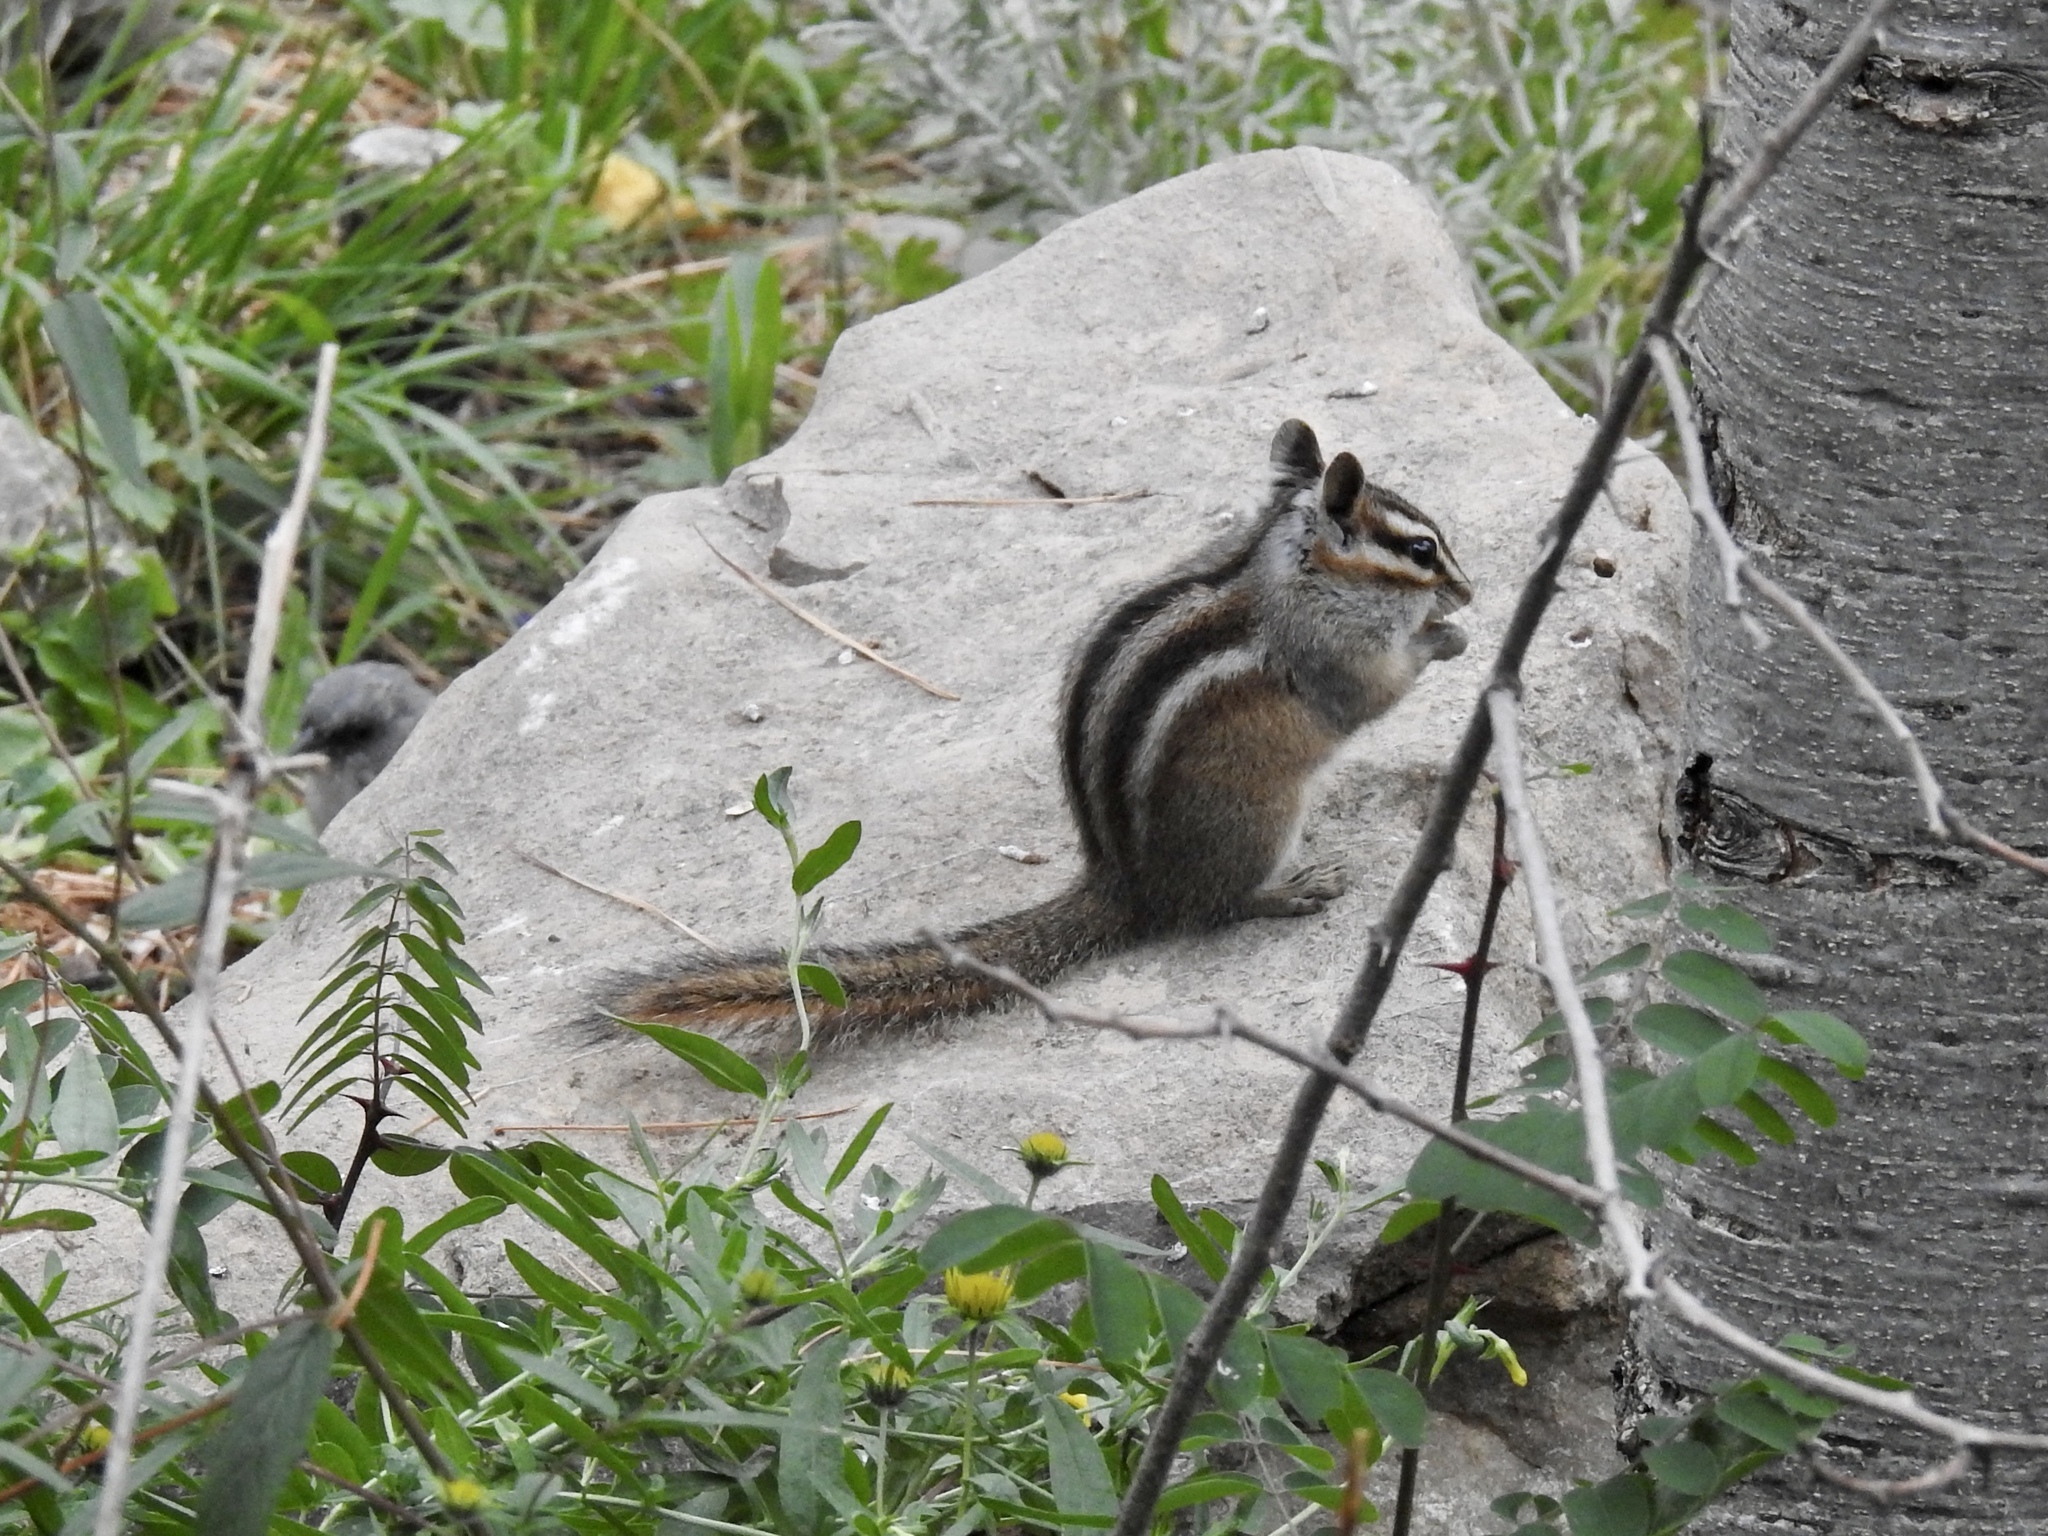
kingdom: Animalia
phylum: Chordata
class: Mammalia
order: Rodentia
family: Sciuridae
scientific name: Sciuridae
